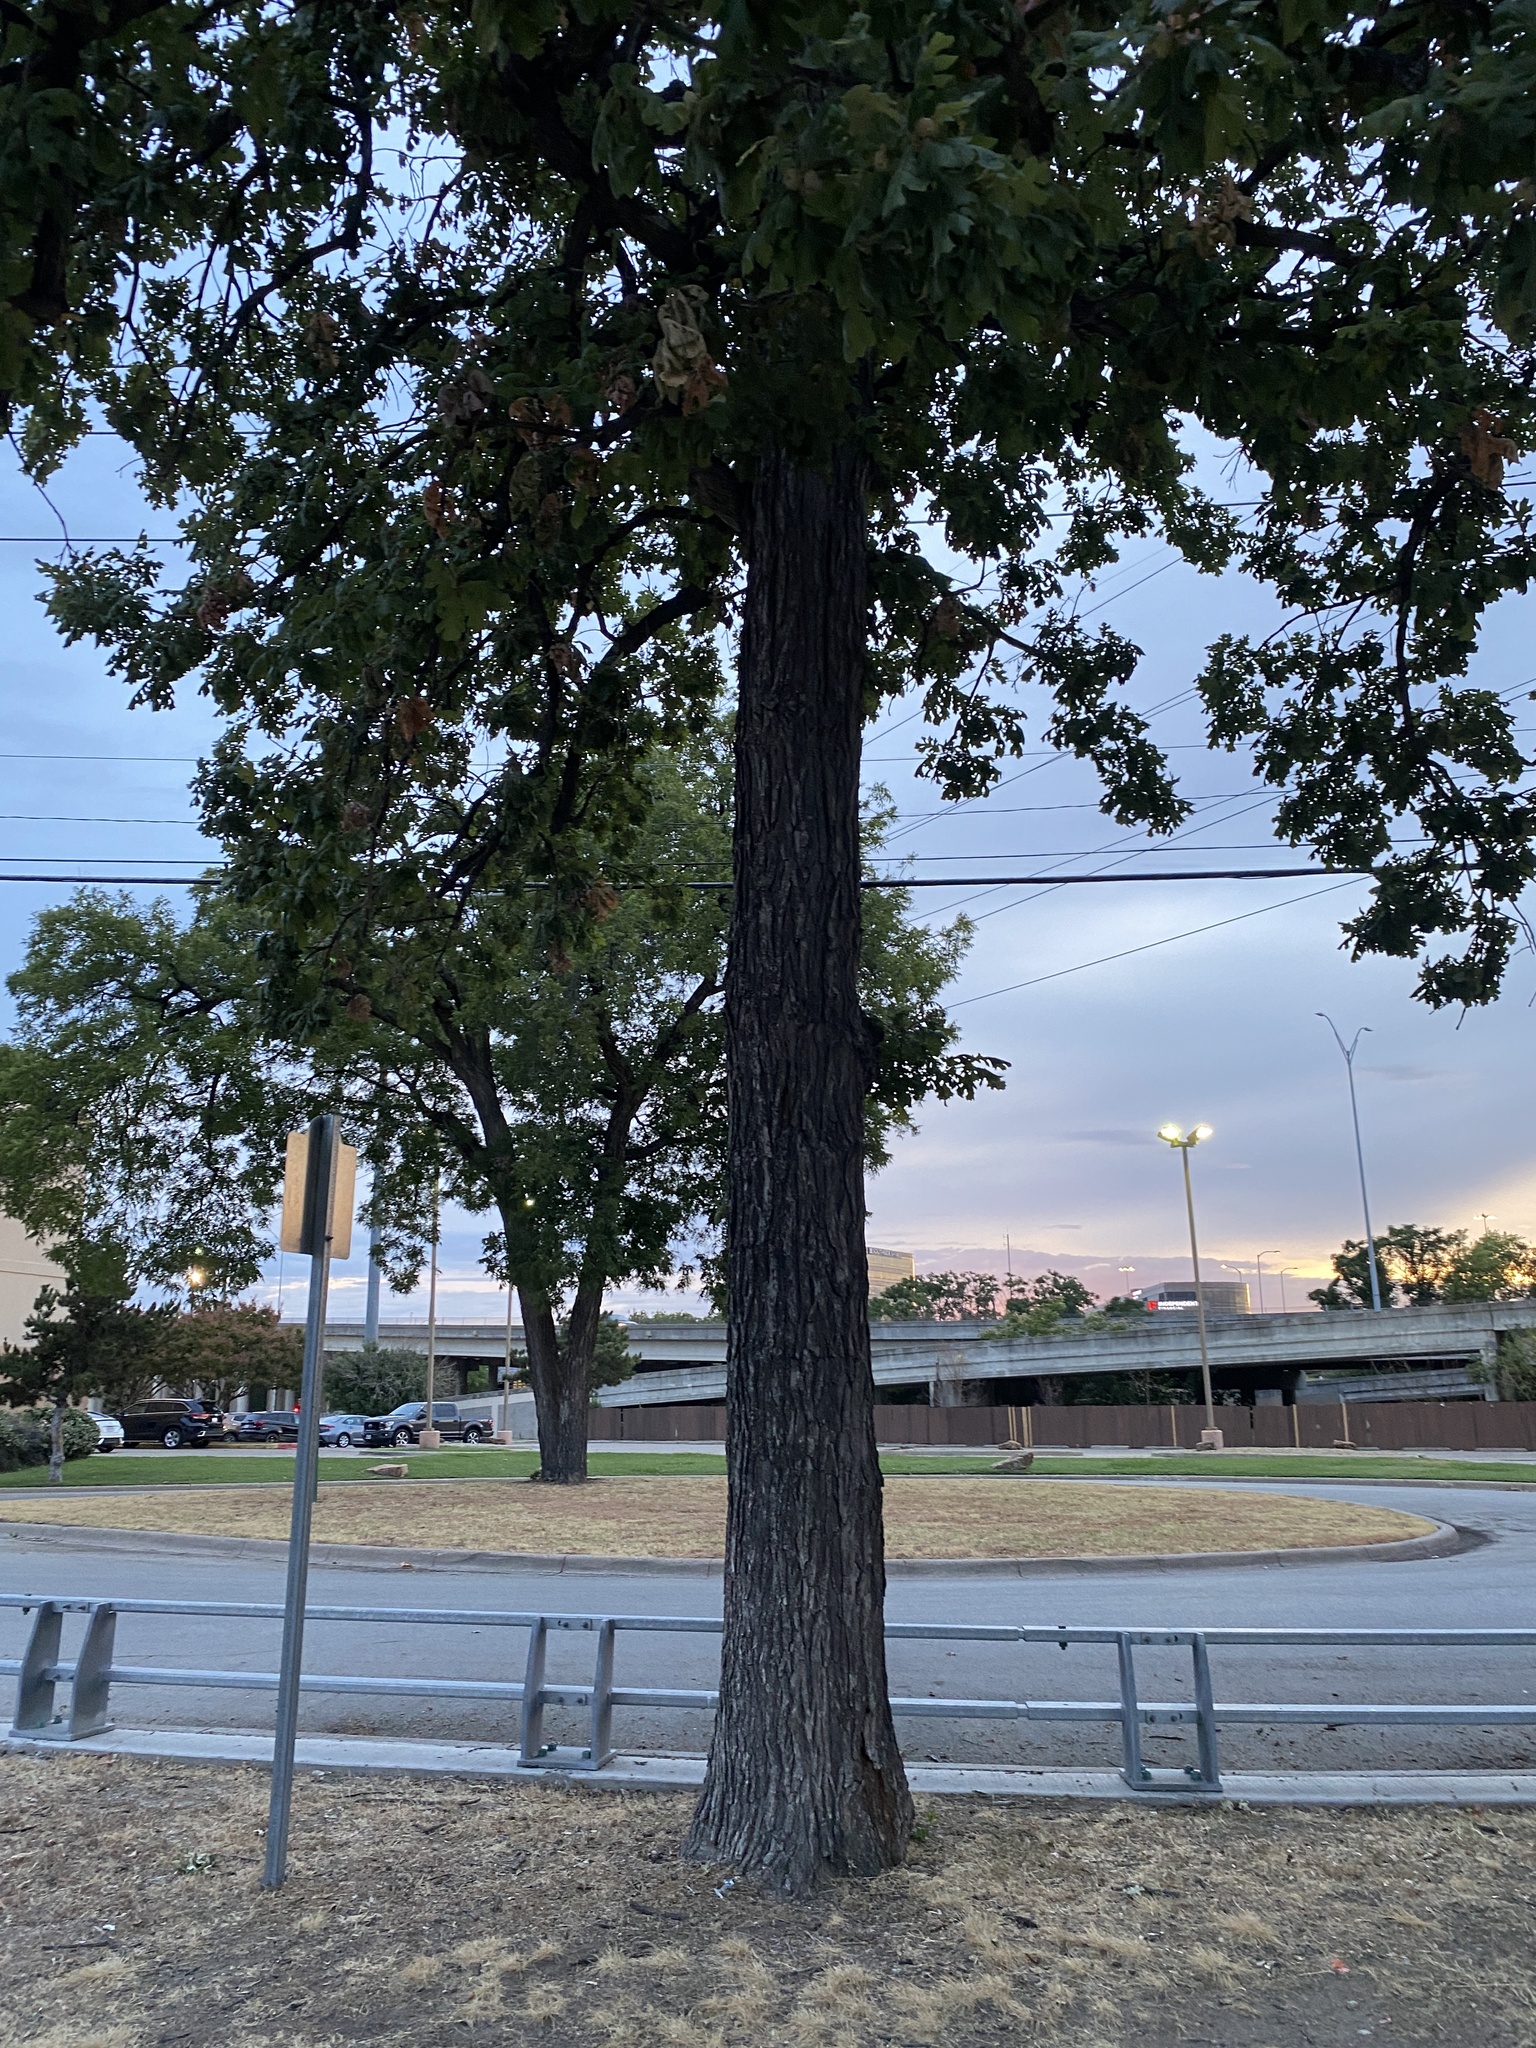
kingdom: Plantae
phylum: Tracheophyta
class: Magnoliopsida
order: Fagales
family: Fagaceae
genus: Quercus
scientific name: Quercus macrocarpa
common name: Bur oak
